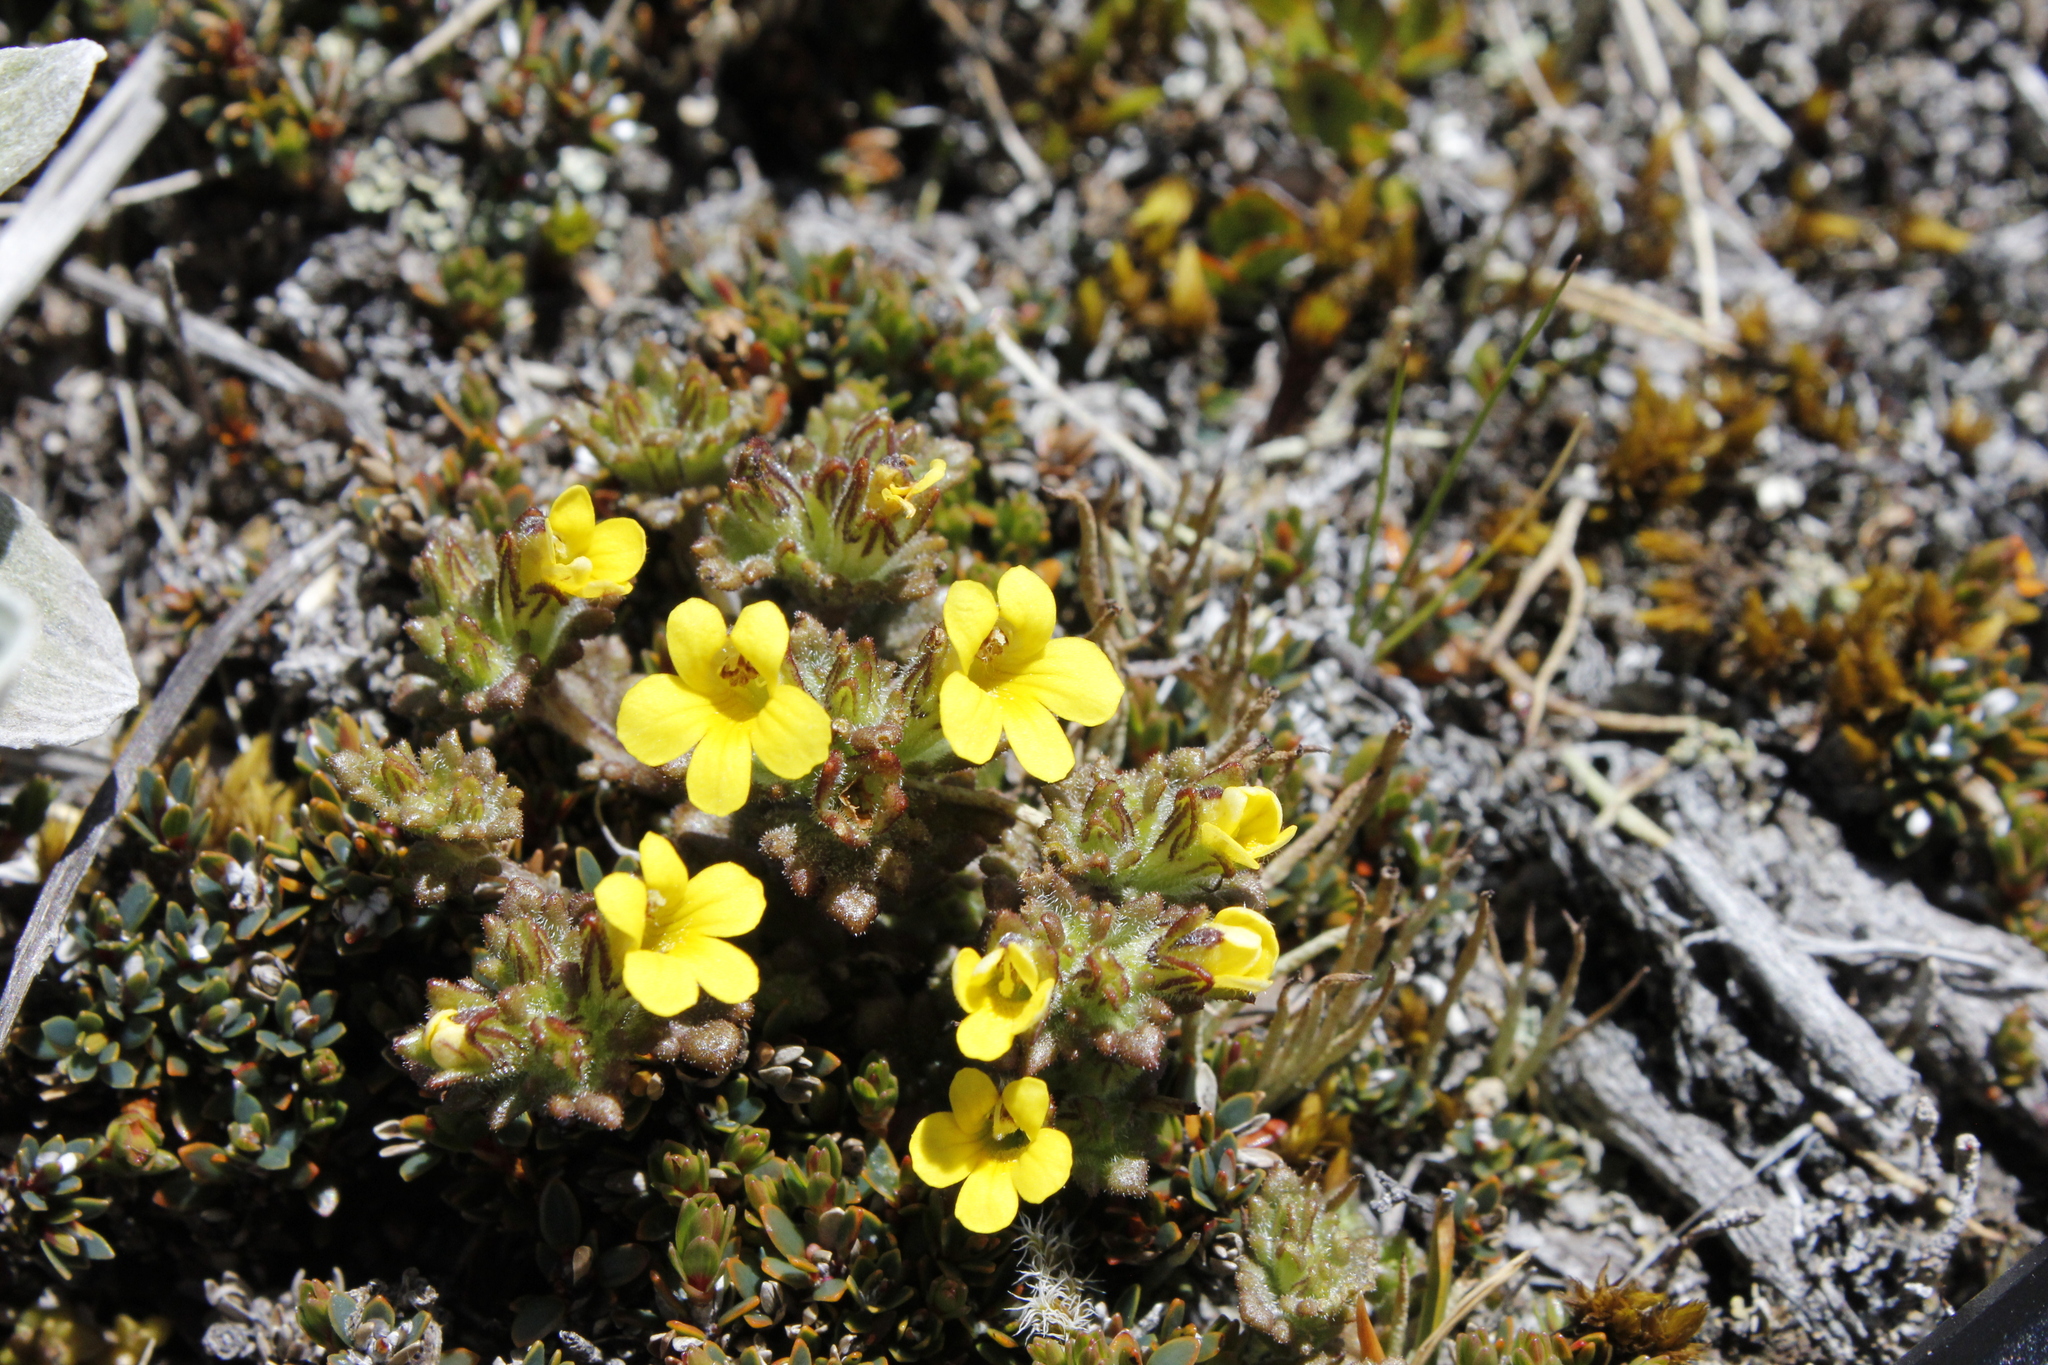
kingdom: Plantae
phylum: Tracheophyta
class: Magnoliopsida
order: Lamiales
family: Orobanchaceae
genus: Euphrasia
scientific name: Euphrasia cockayneana
